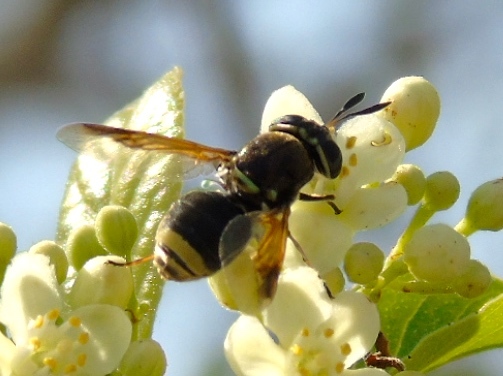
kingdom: Animalia
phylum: Arthropoda
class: Insecta
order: Diptera
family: Stratiomyidae
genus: Hoplitimyia
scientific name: Hoplitimyia
